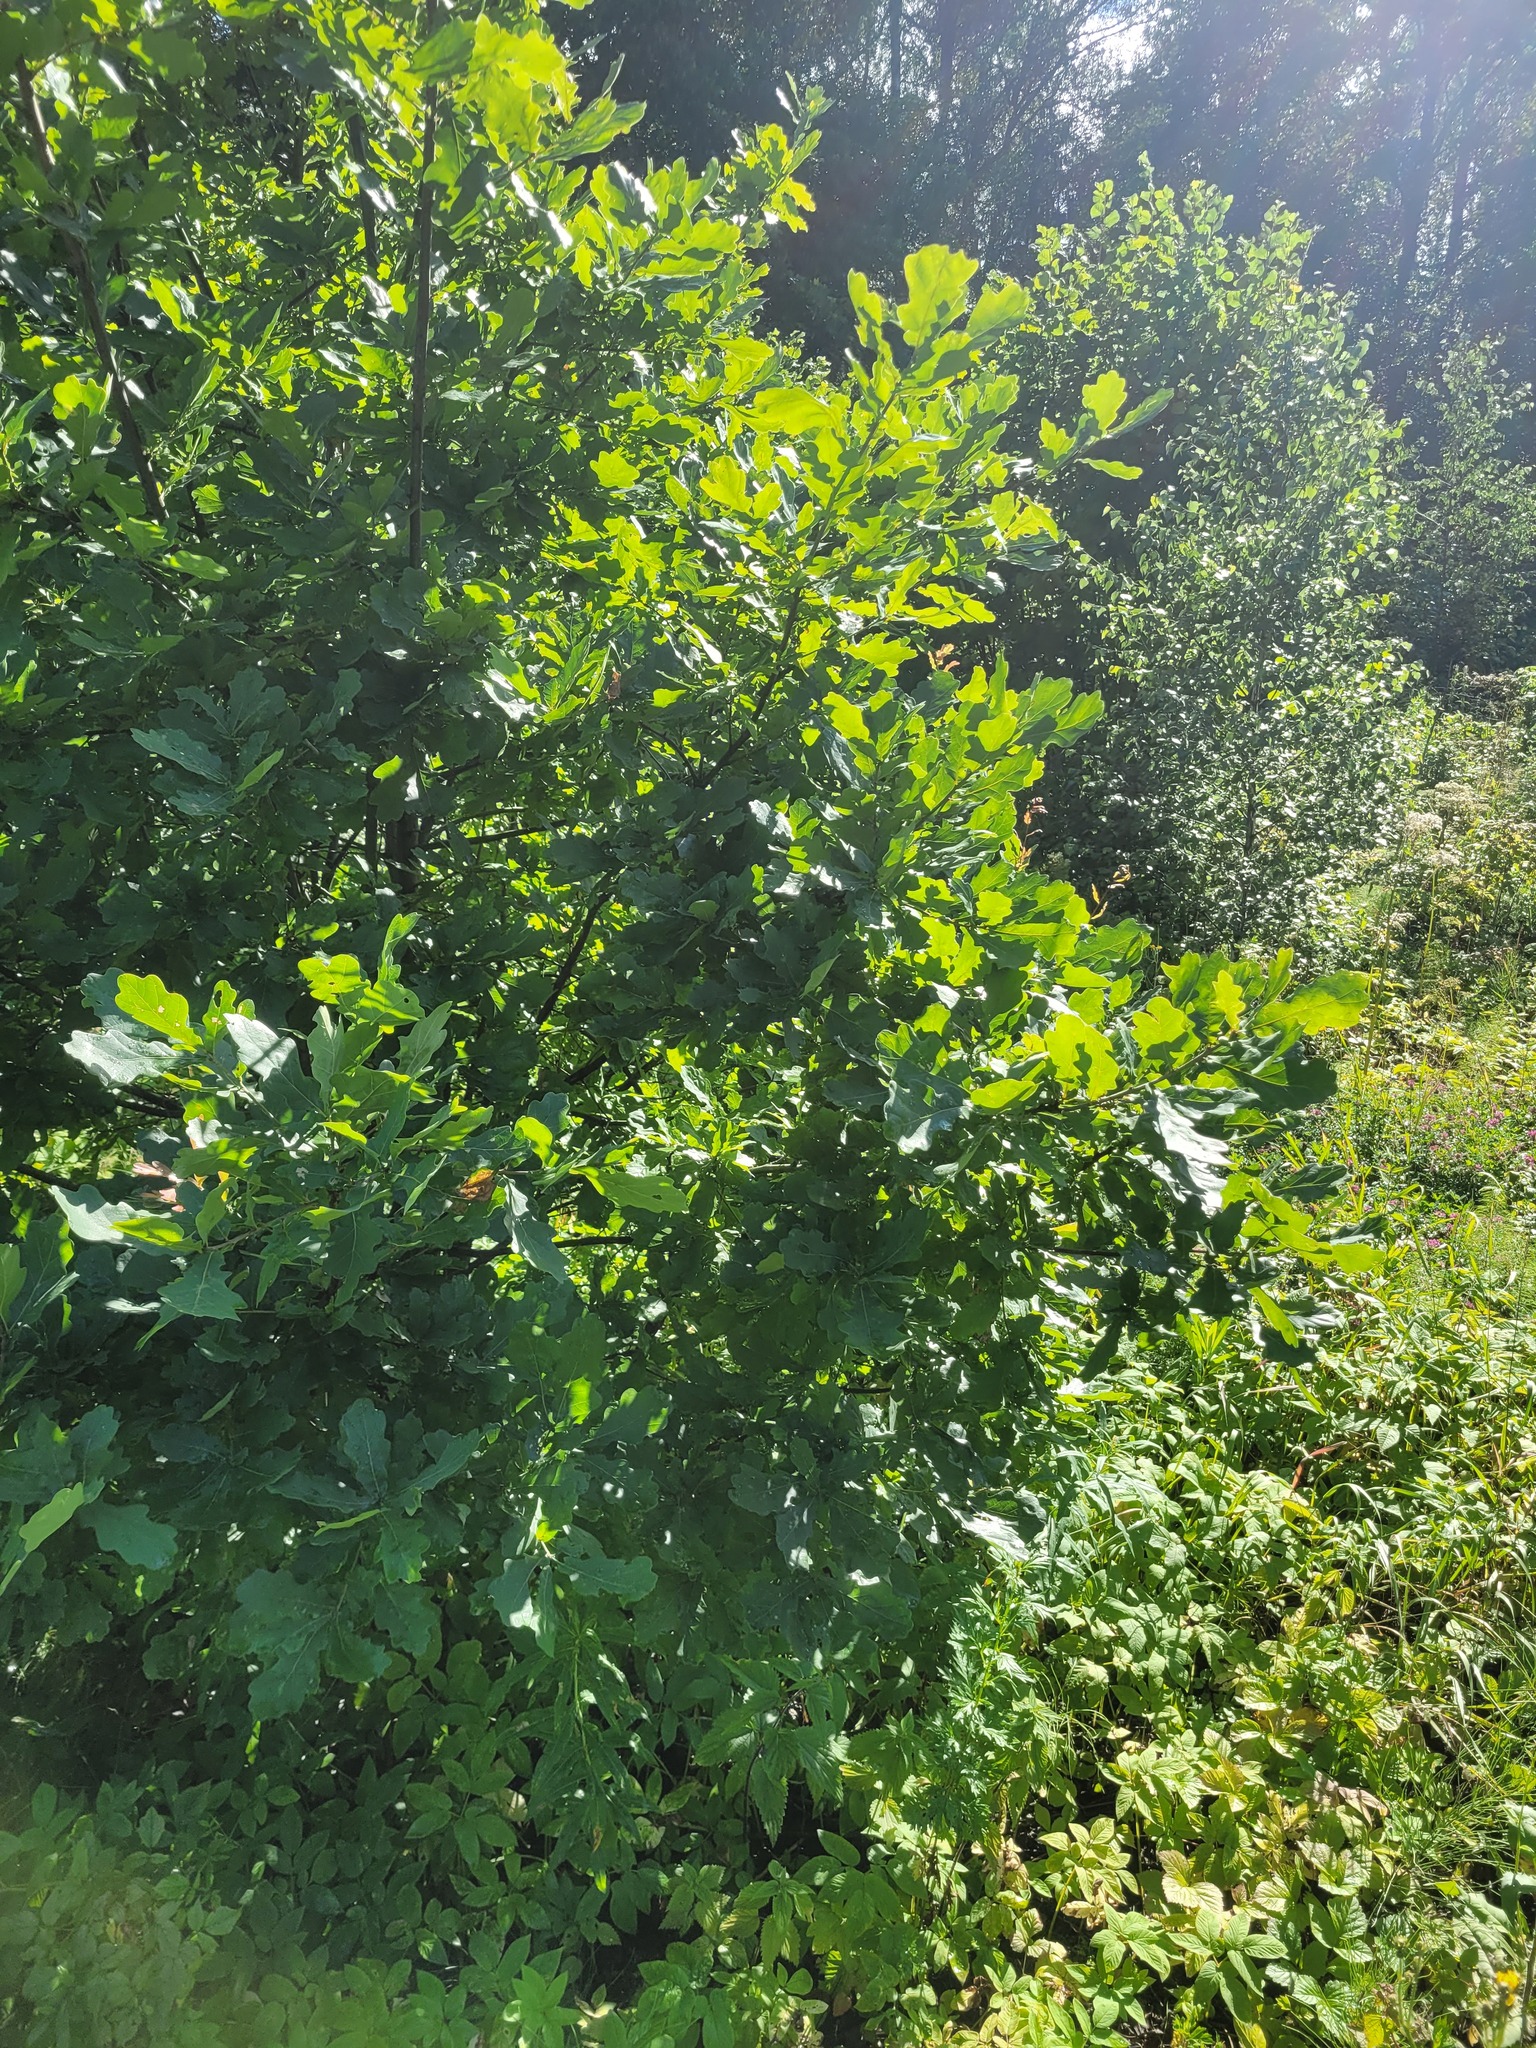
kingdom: Plantae
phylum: Tracheophyta
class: Magnoliopsida
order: Fagales
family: Fagaceae
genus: Quercus
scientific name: Quercus robur
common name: Pedunculate oak
